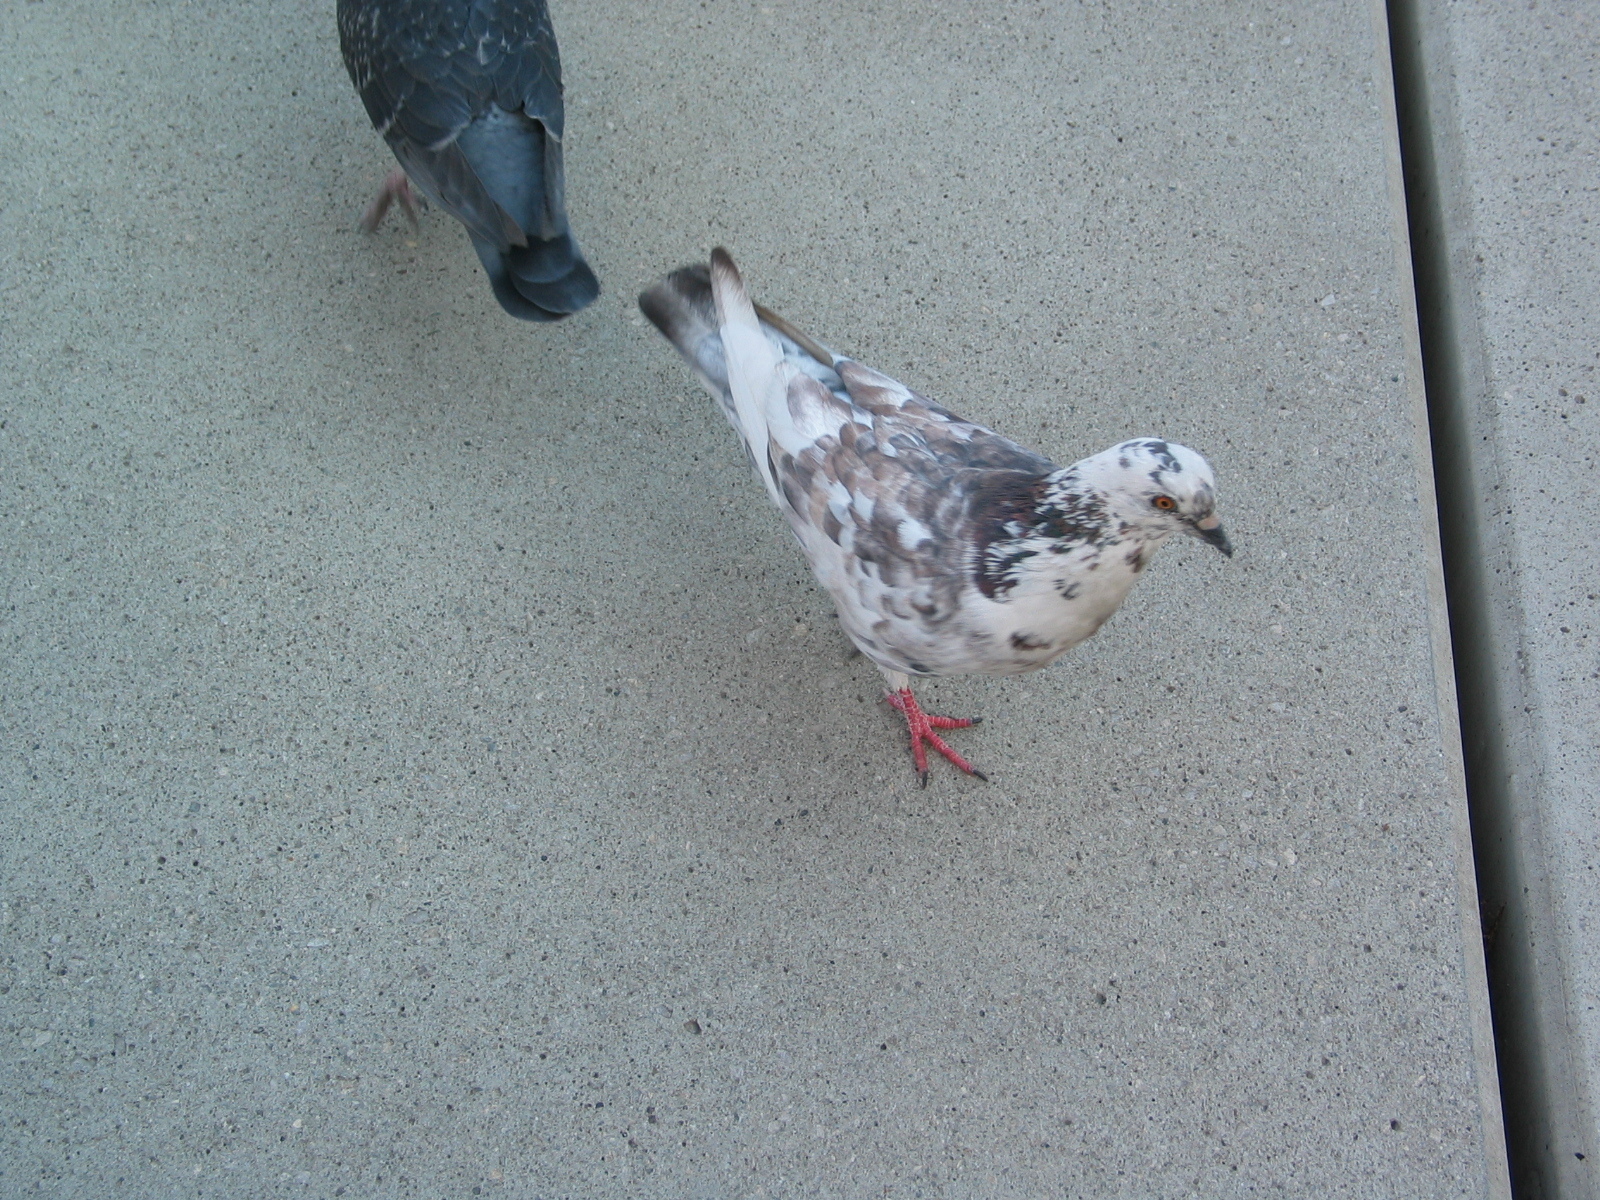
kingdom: Animalia
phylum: Chordata
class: Aves
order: Columbiformes
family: Columbidae
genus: Columba
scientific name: Columba livia
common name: Rock pigeon
